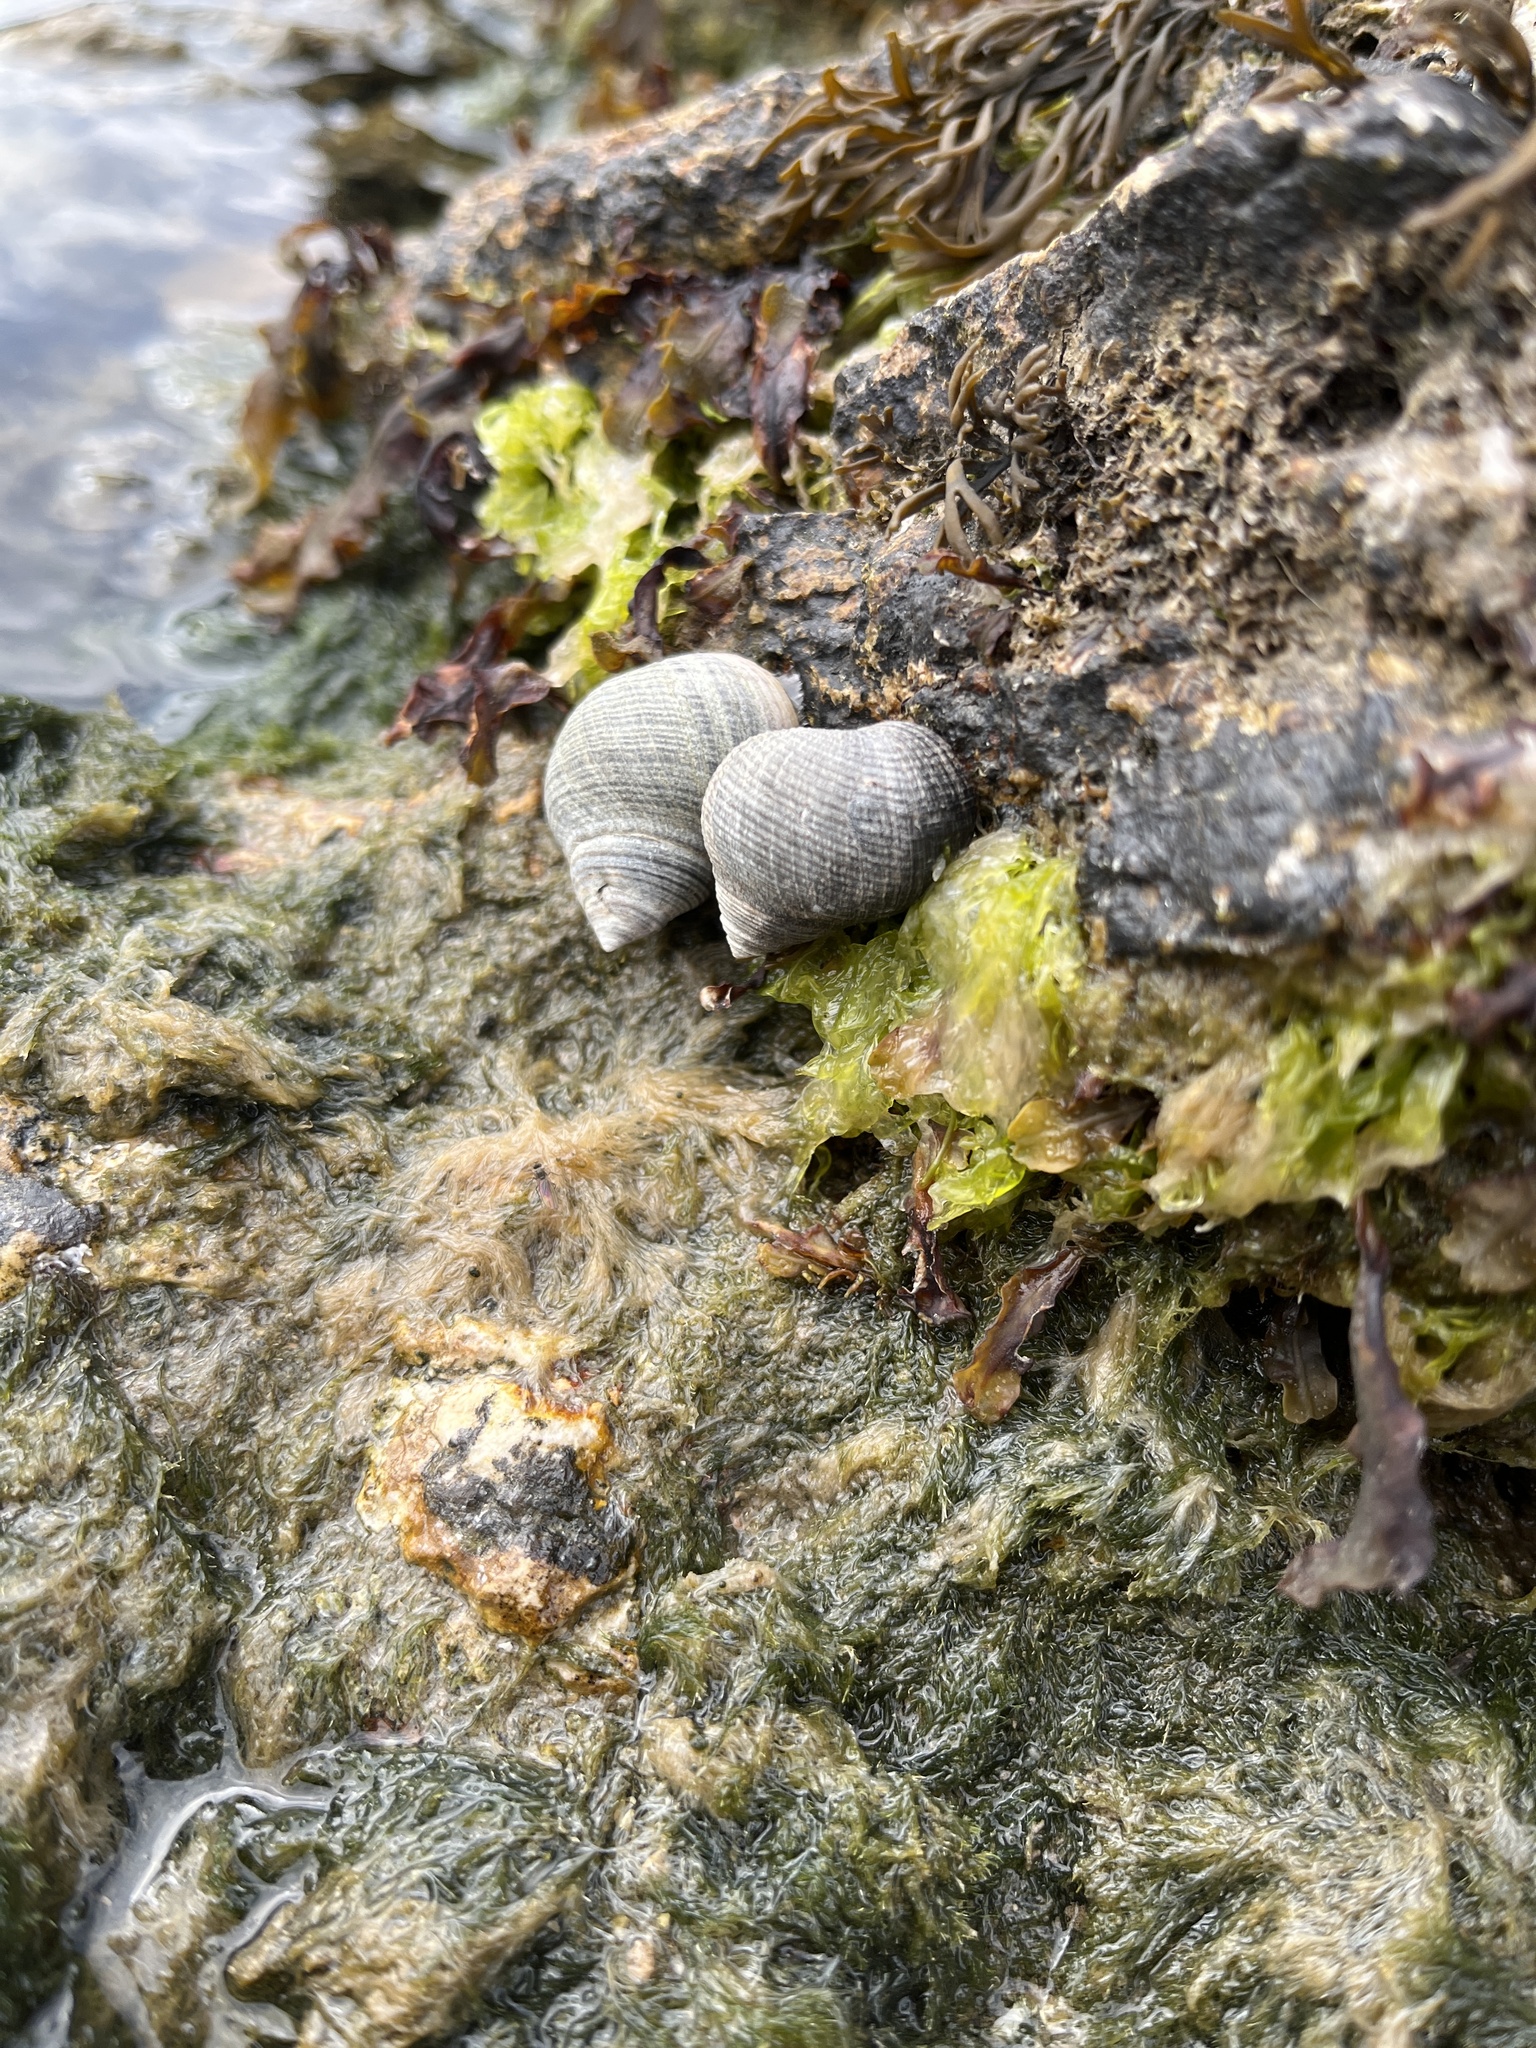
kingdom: Animalia
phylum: Mollusca
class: Gastropoda
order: Littorinimorpha
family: Littorinidae
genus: Littorina
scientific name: Littorina littorea
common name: Common periwinkle
